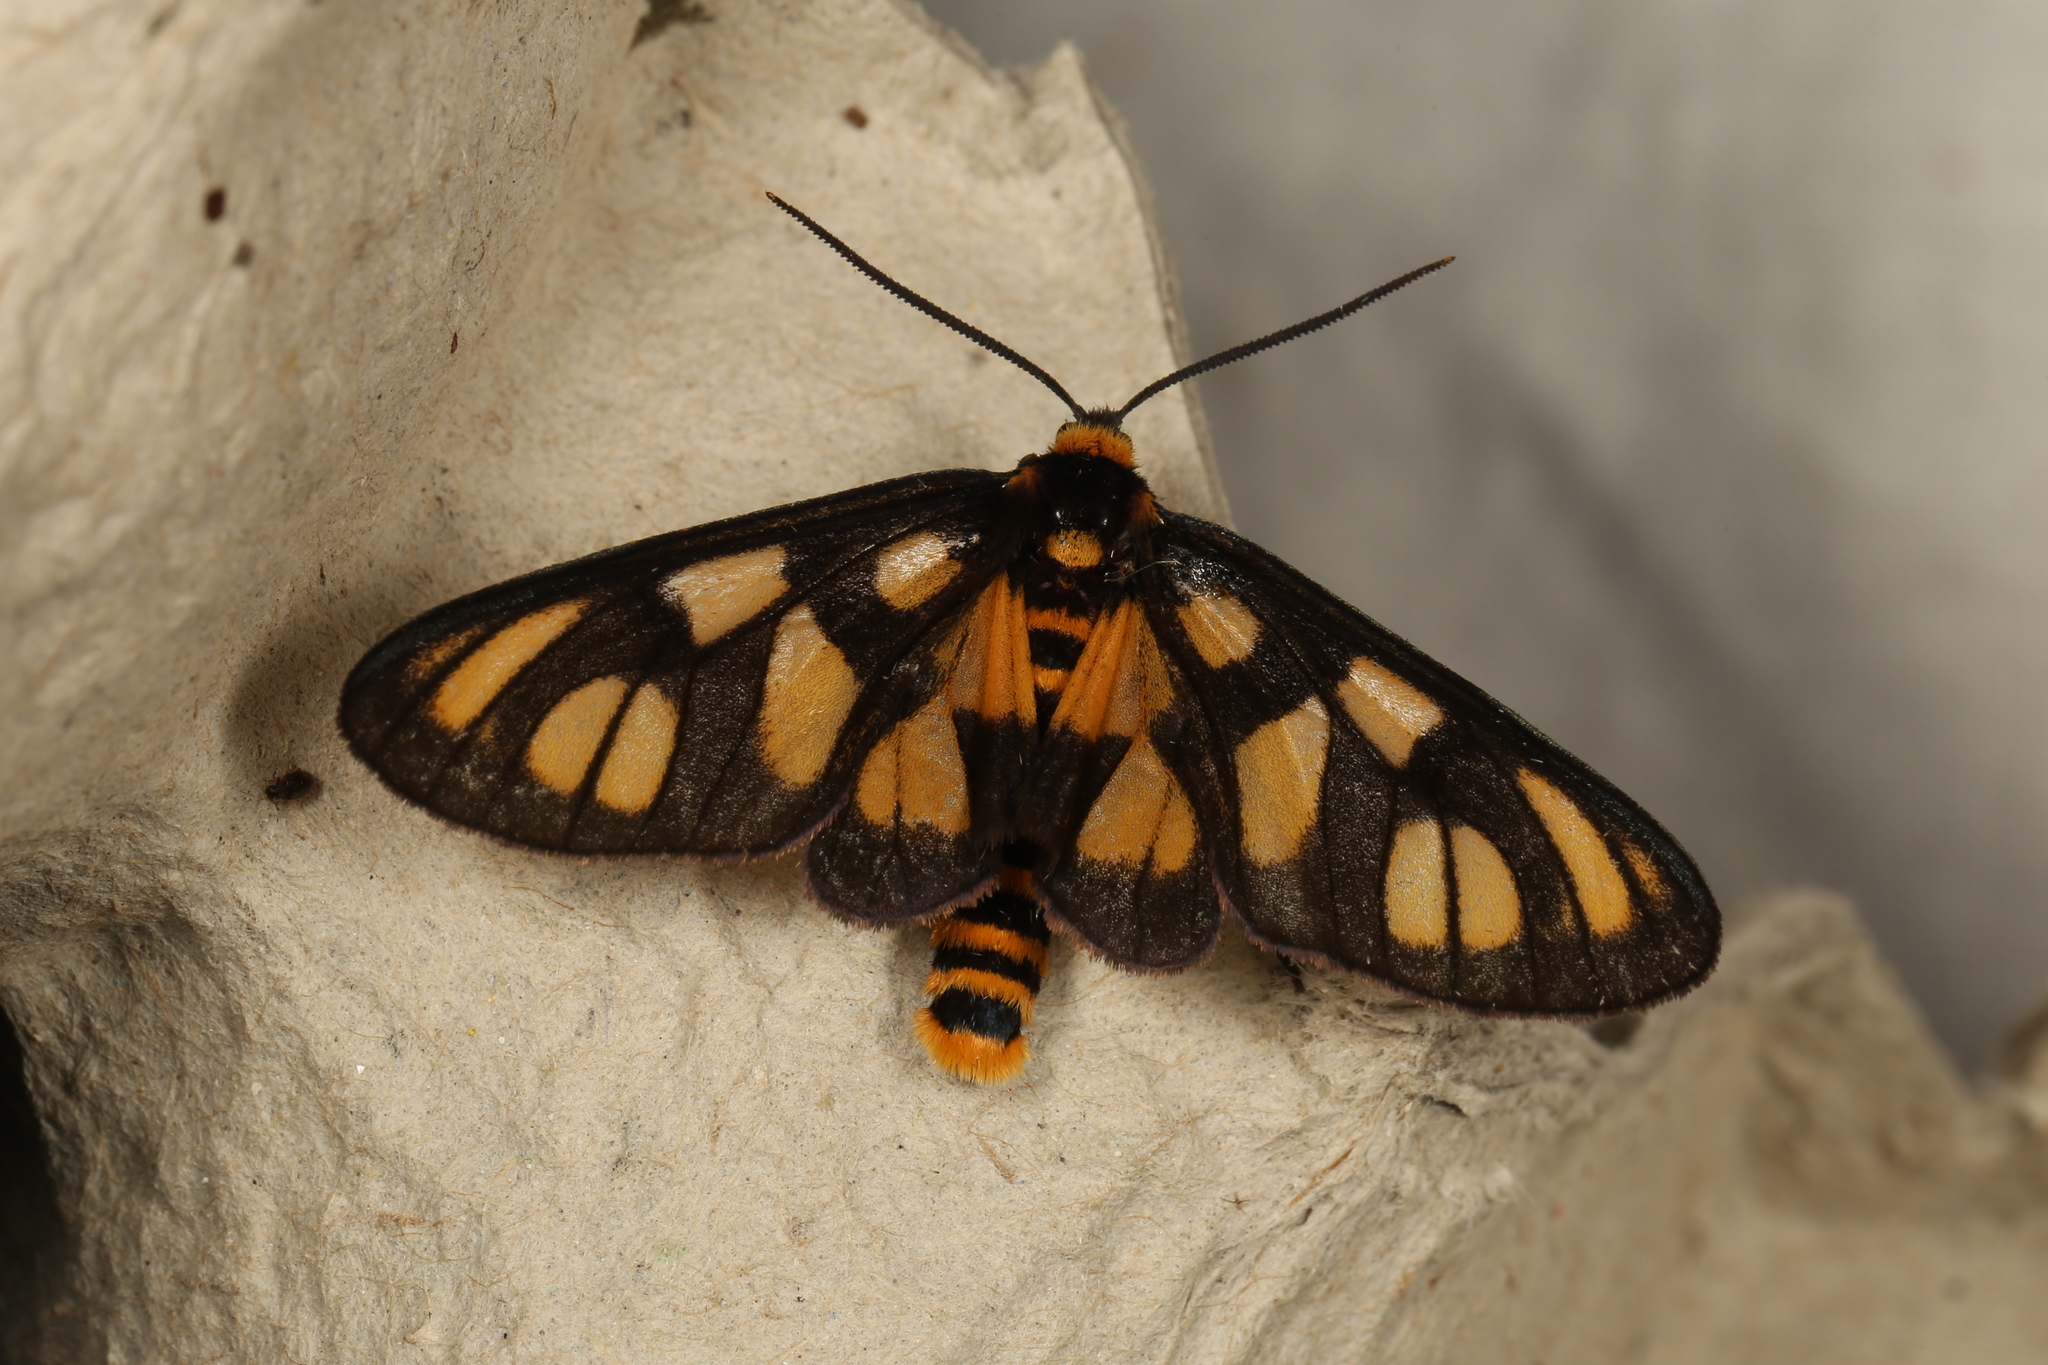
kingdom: Animalia
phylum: Arthropoda
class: Insecta
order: Lepidoptera
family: Erebidae
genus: Amata
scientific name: Amata trigonophora
